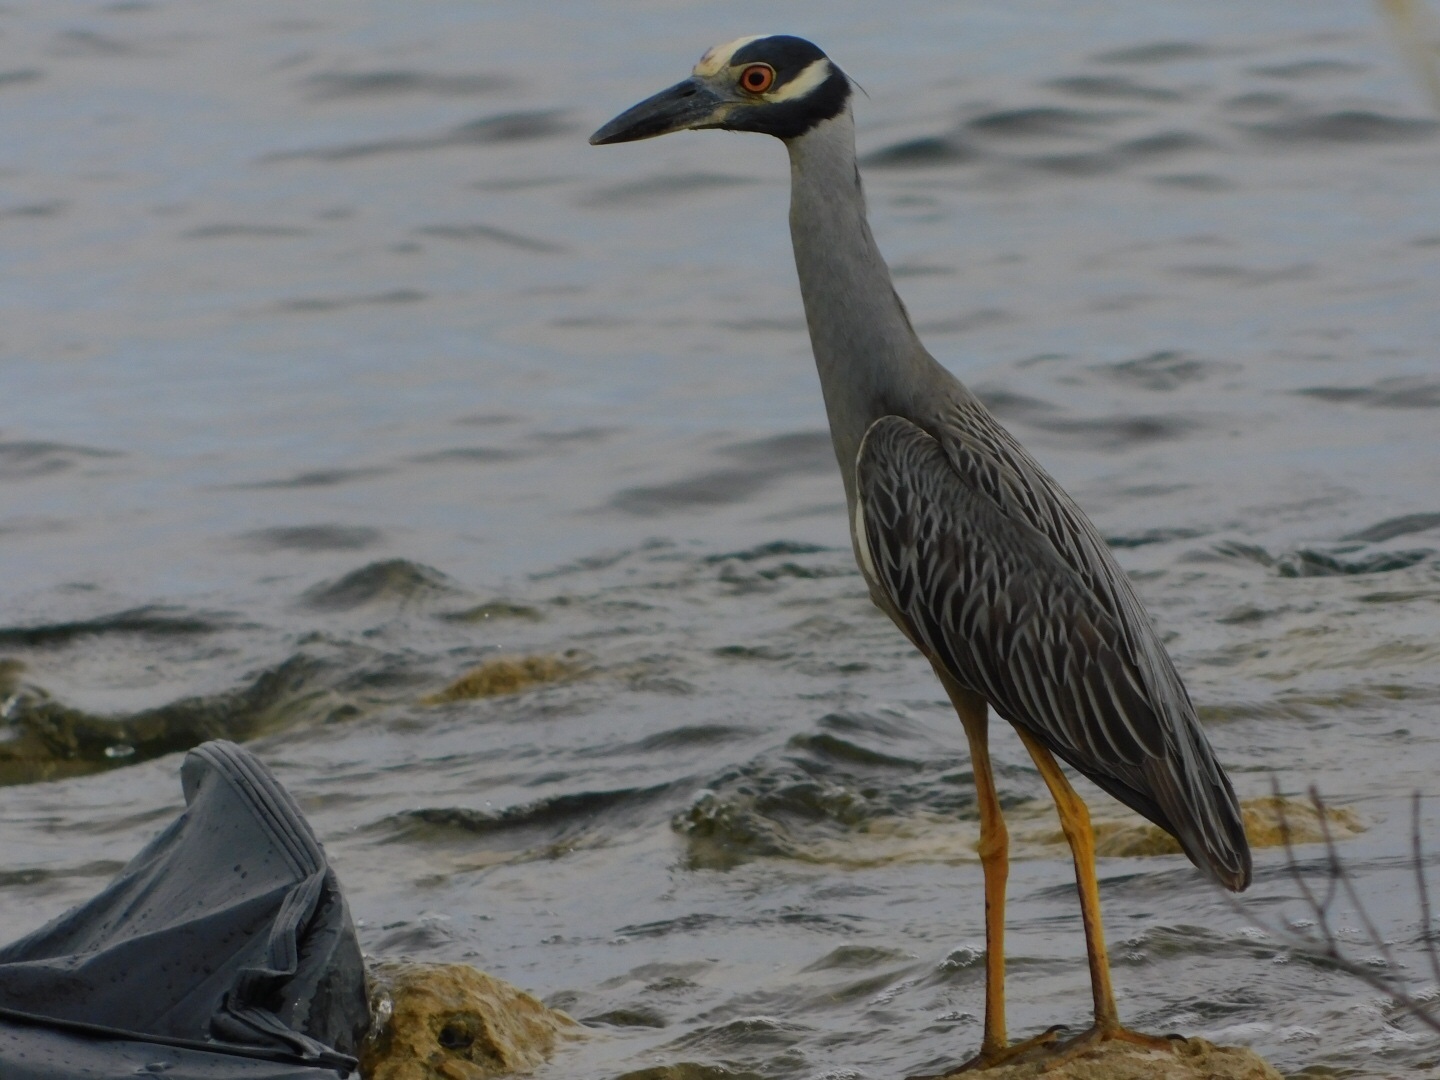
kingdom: Animalia
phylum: Chordata
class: Aves
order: Pelecaniformes
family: Ardeidae
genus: Nyctanassa
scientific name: Nyctanassa violacea
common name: Yellow-crowned night heron
